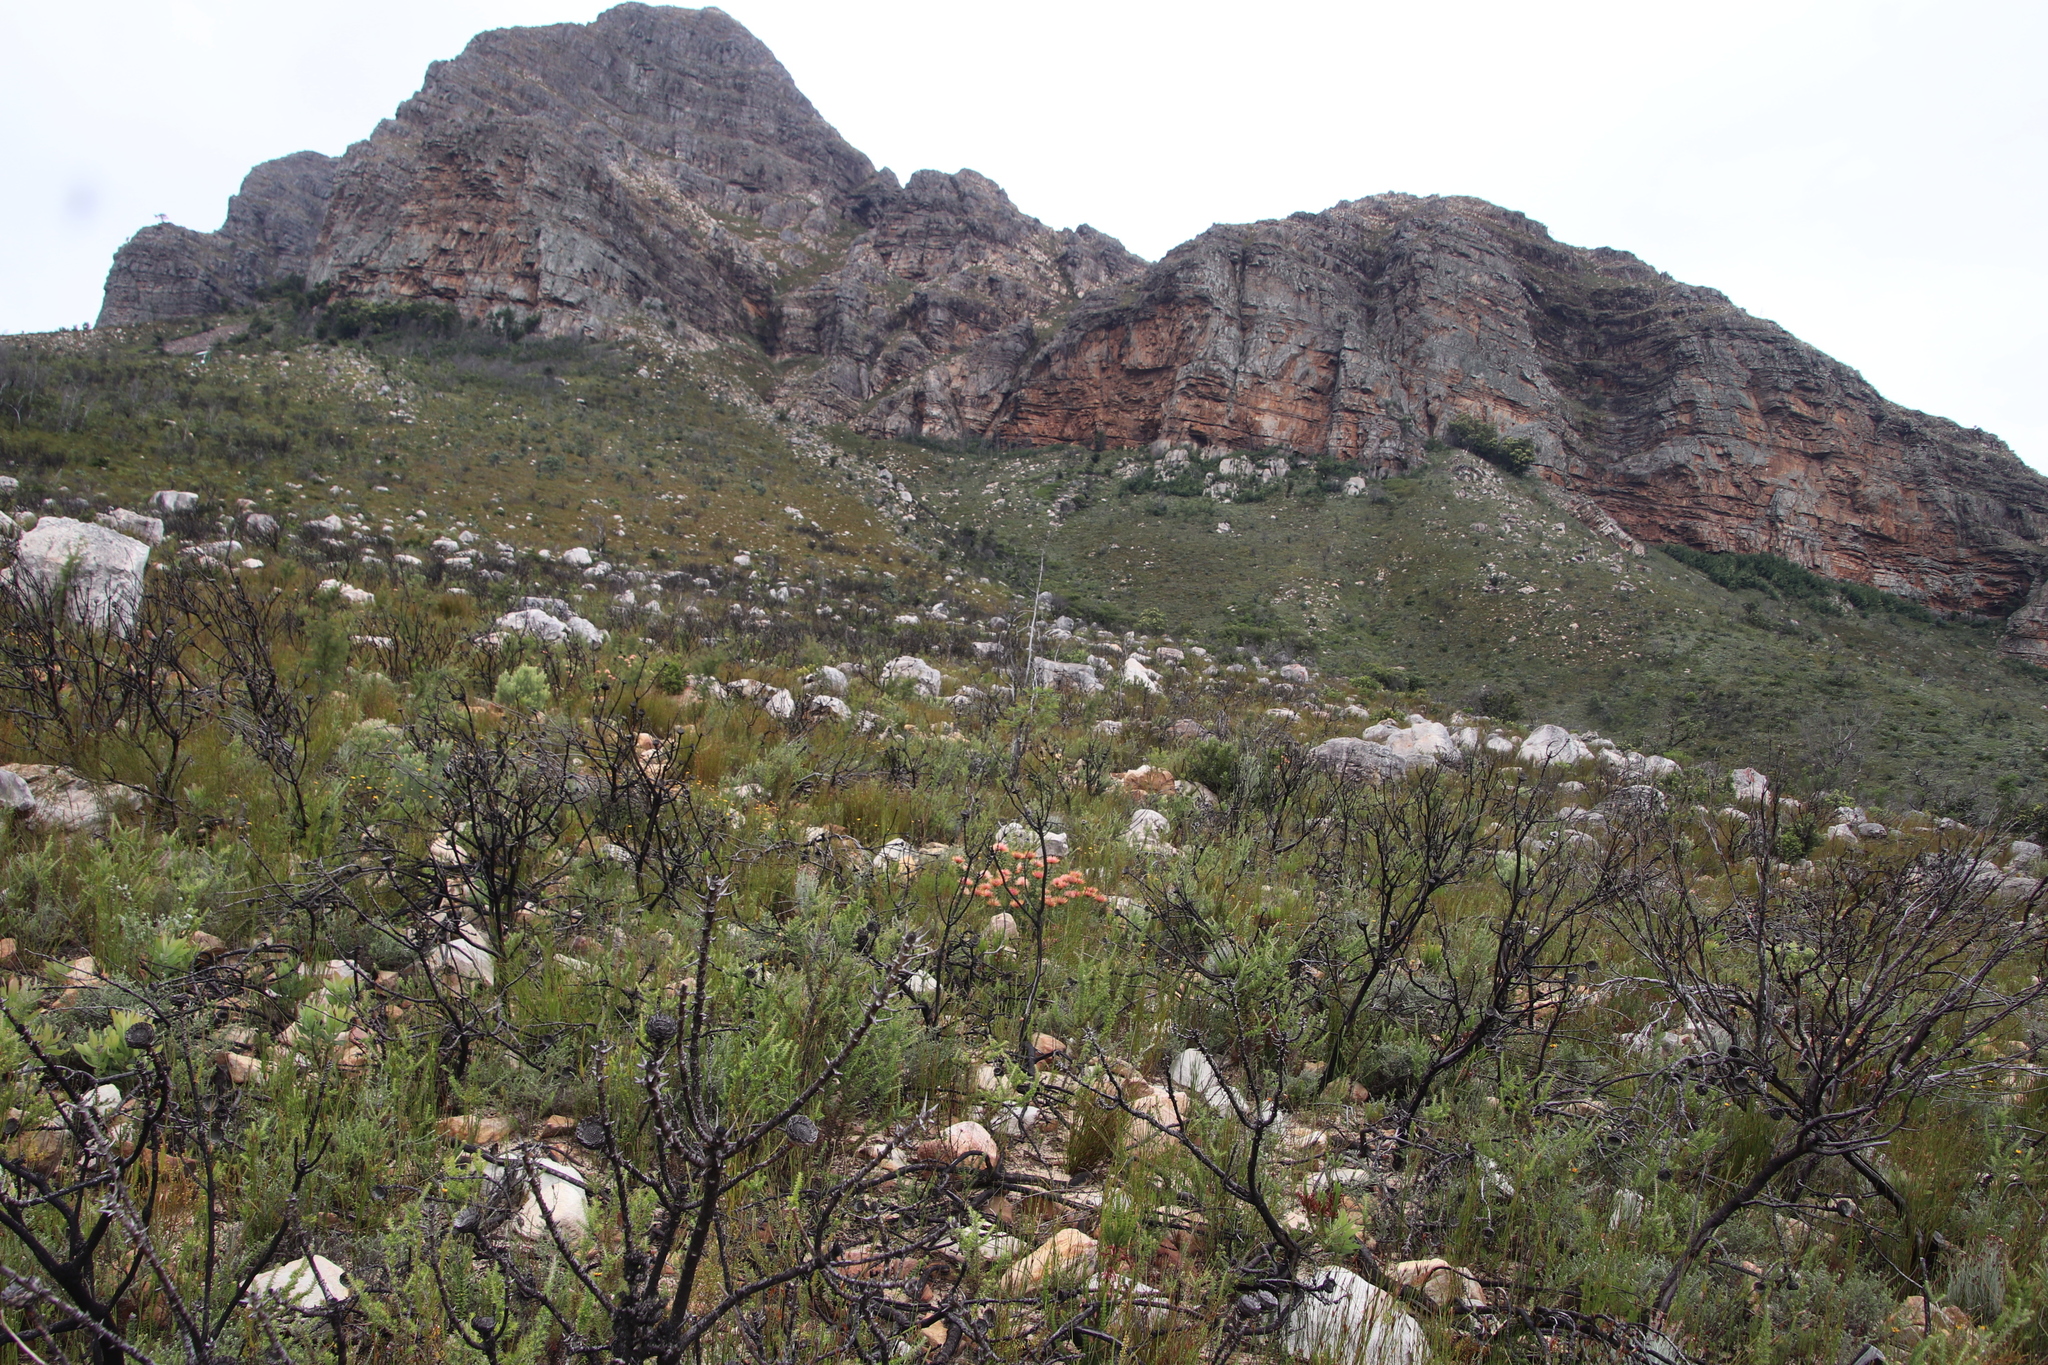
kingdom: Plantae
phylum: Tracheophyta
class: Magnoliopsida
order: Proteales
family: Proteaceae
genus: Leucospermum
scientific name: Leucospermum tottum
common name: Ribbon pincushion
